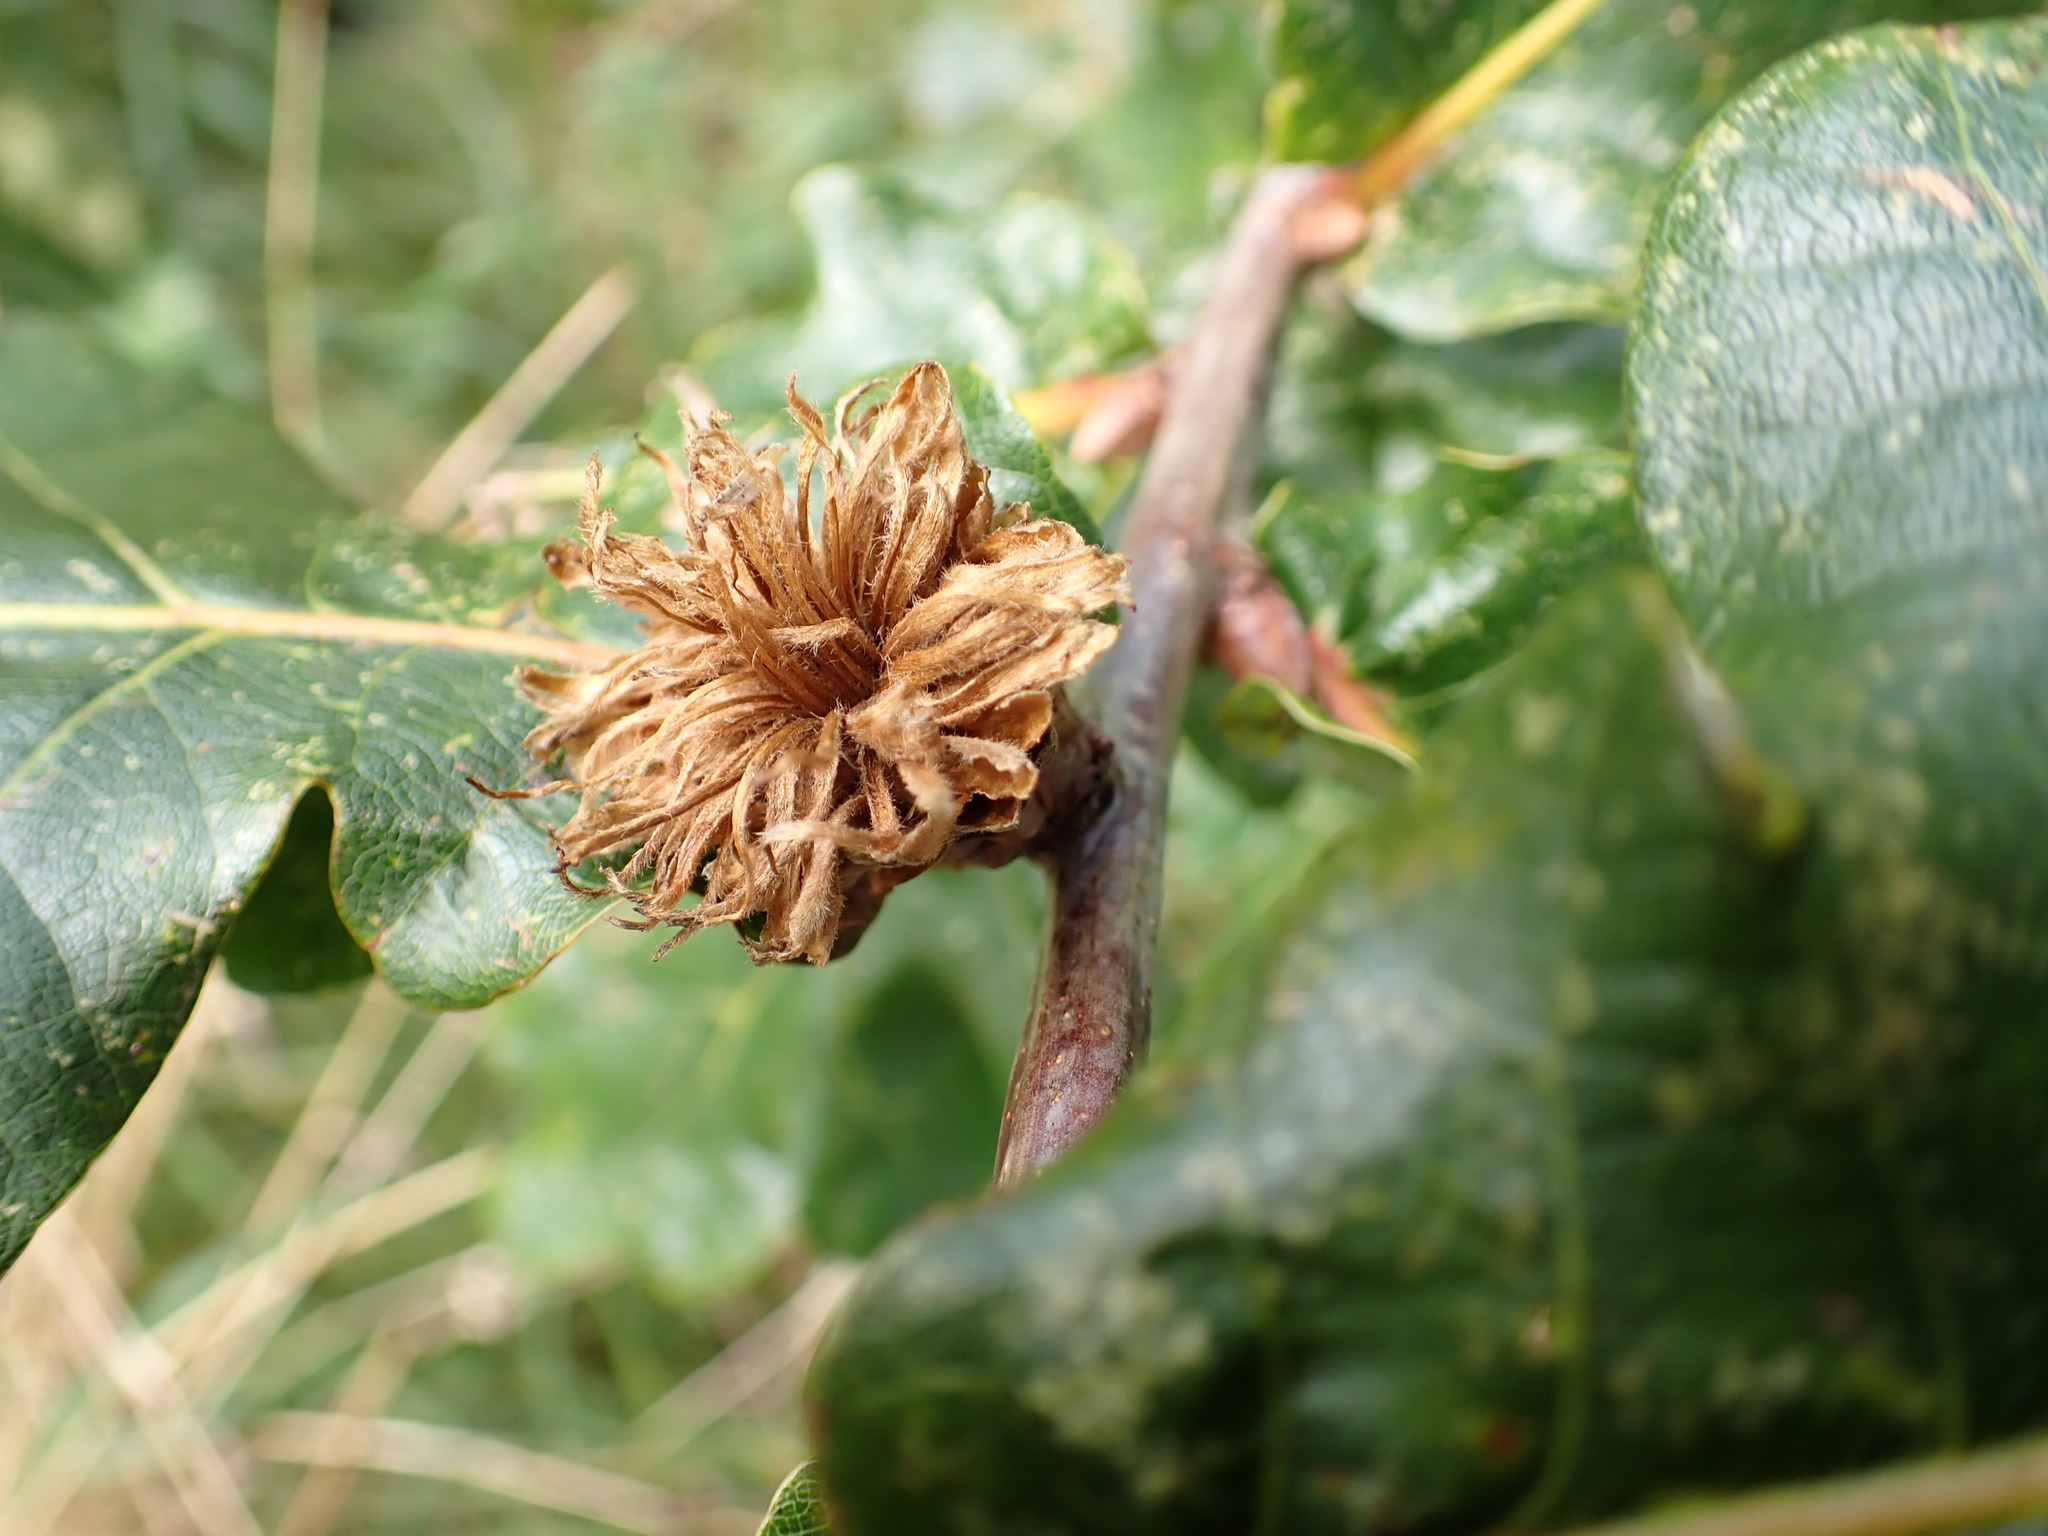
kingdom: Animalia
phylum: Arthropoda
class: Insecta
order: Hymenoptera
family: Cynipidae
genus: Andricus
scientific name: Andricus foecundatrix
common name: Artichoke gall
